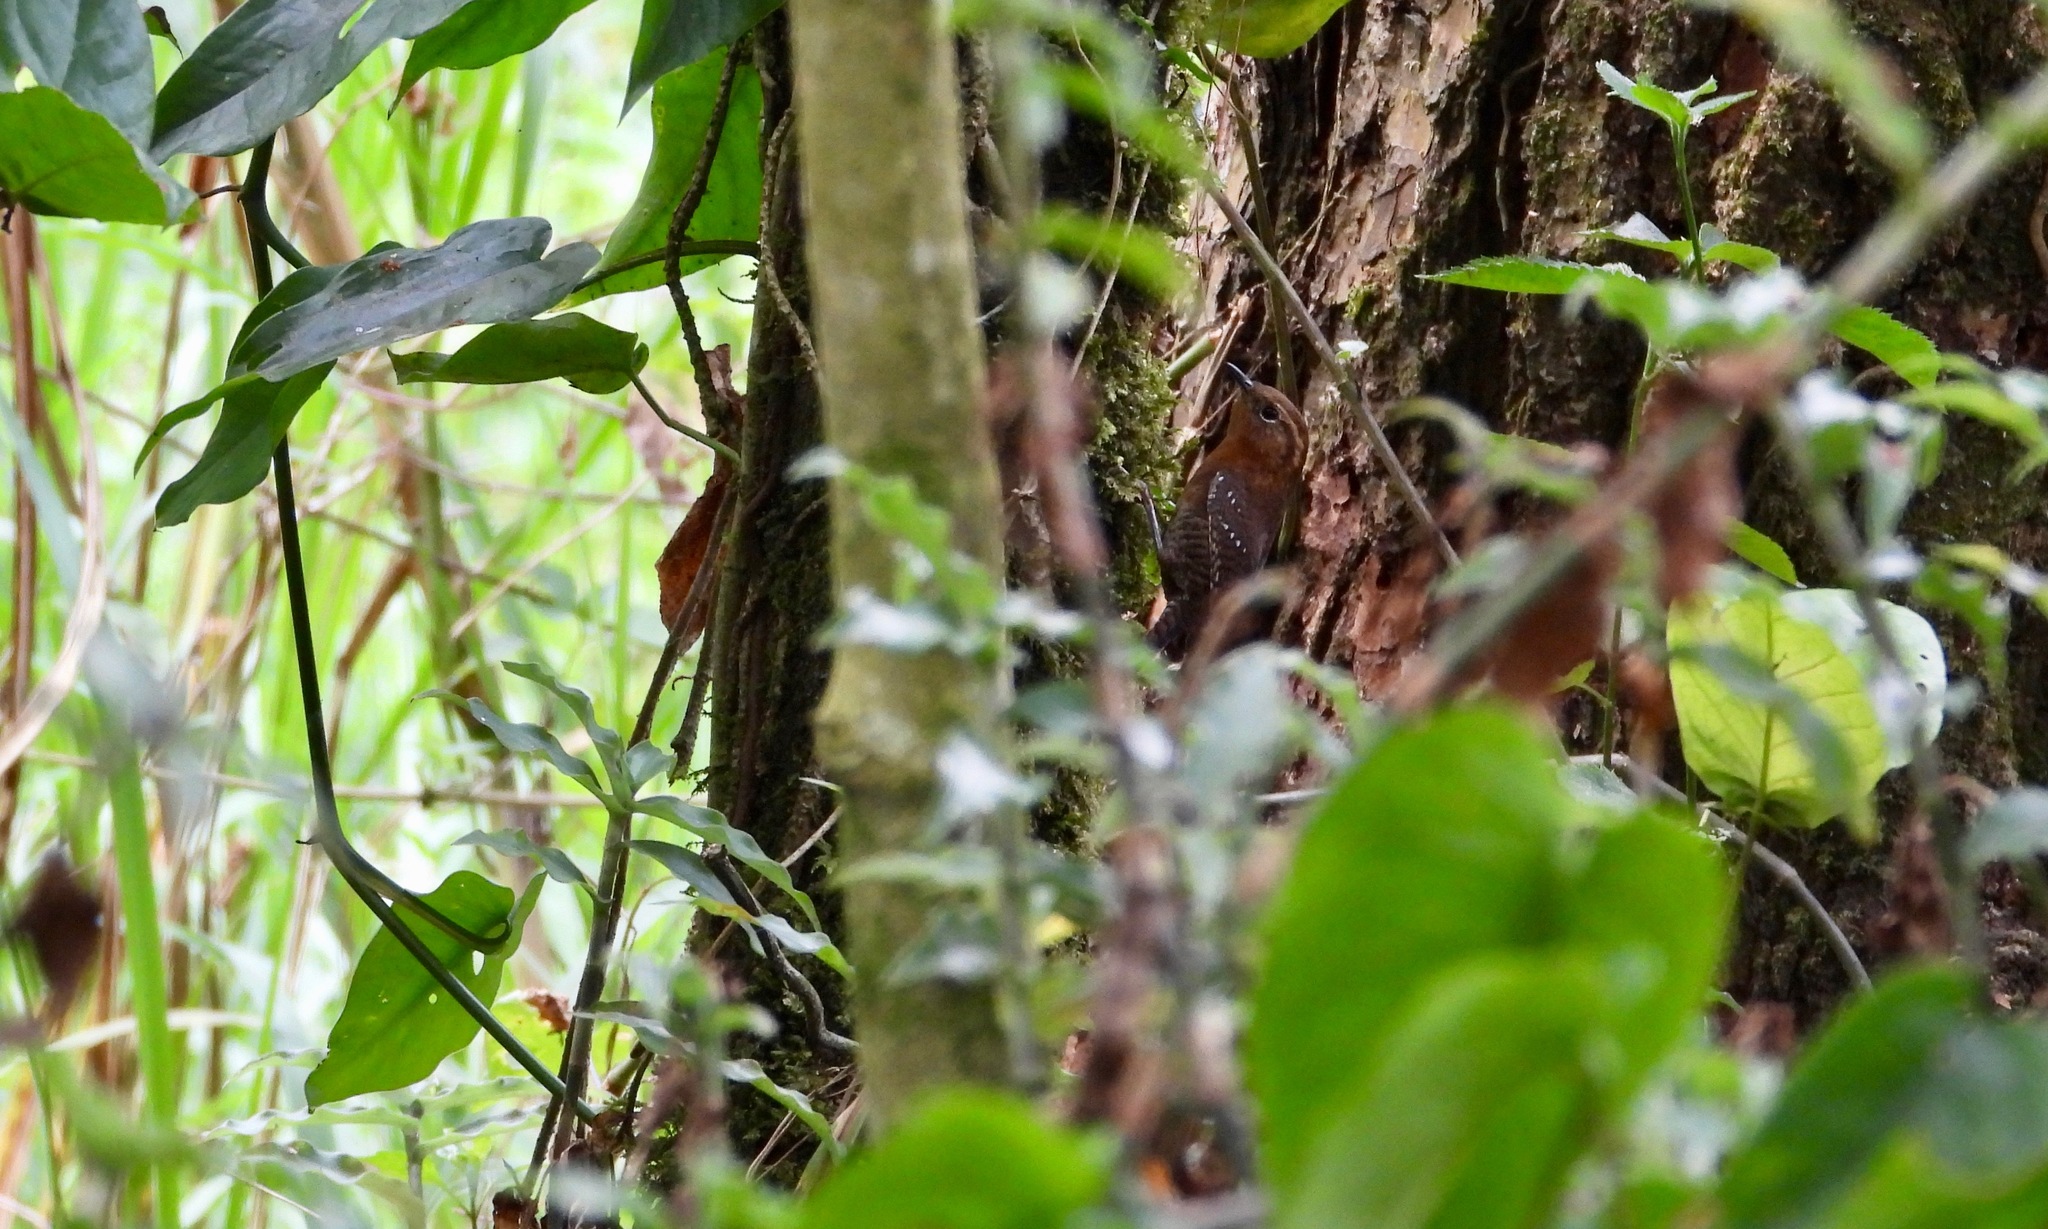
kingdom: Animalia
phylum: Chordata
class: Aves
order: Passeriformes
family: Troglodytidae
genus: Troglodytes
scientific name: Troglodytes rufociliatus
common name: Rufous-browed wren
